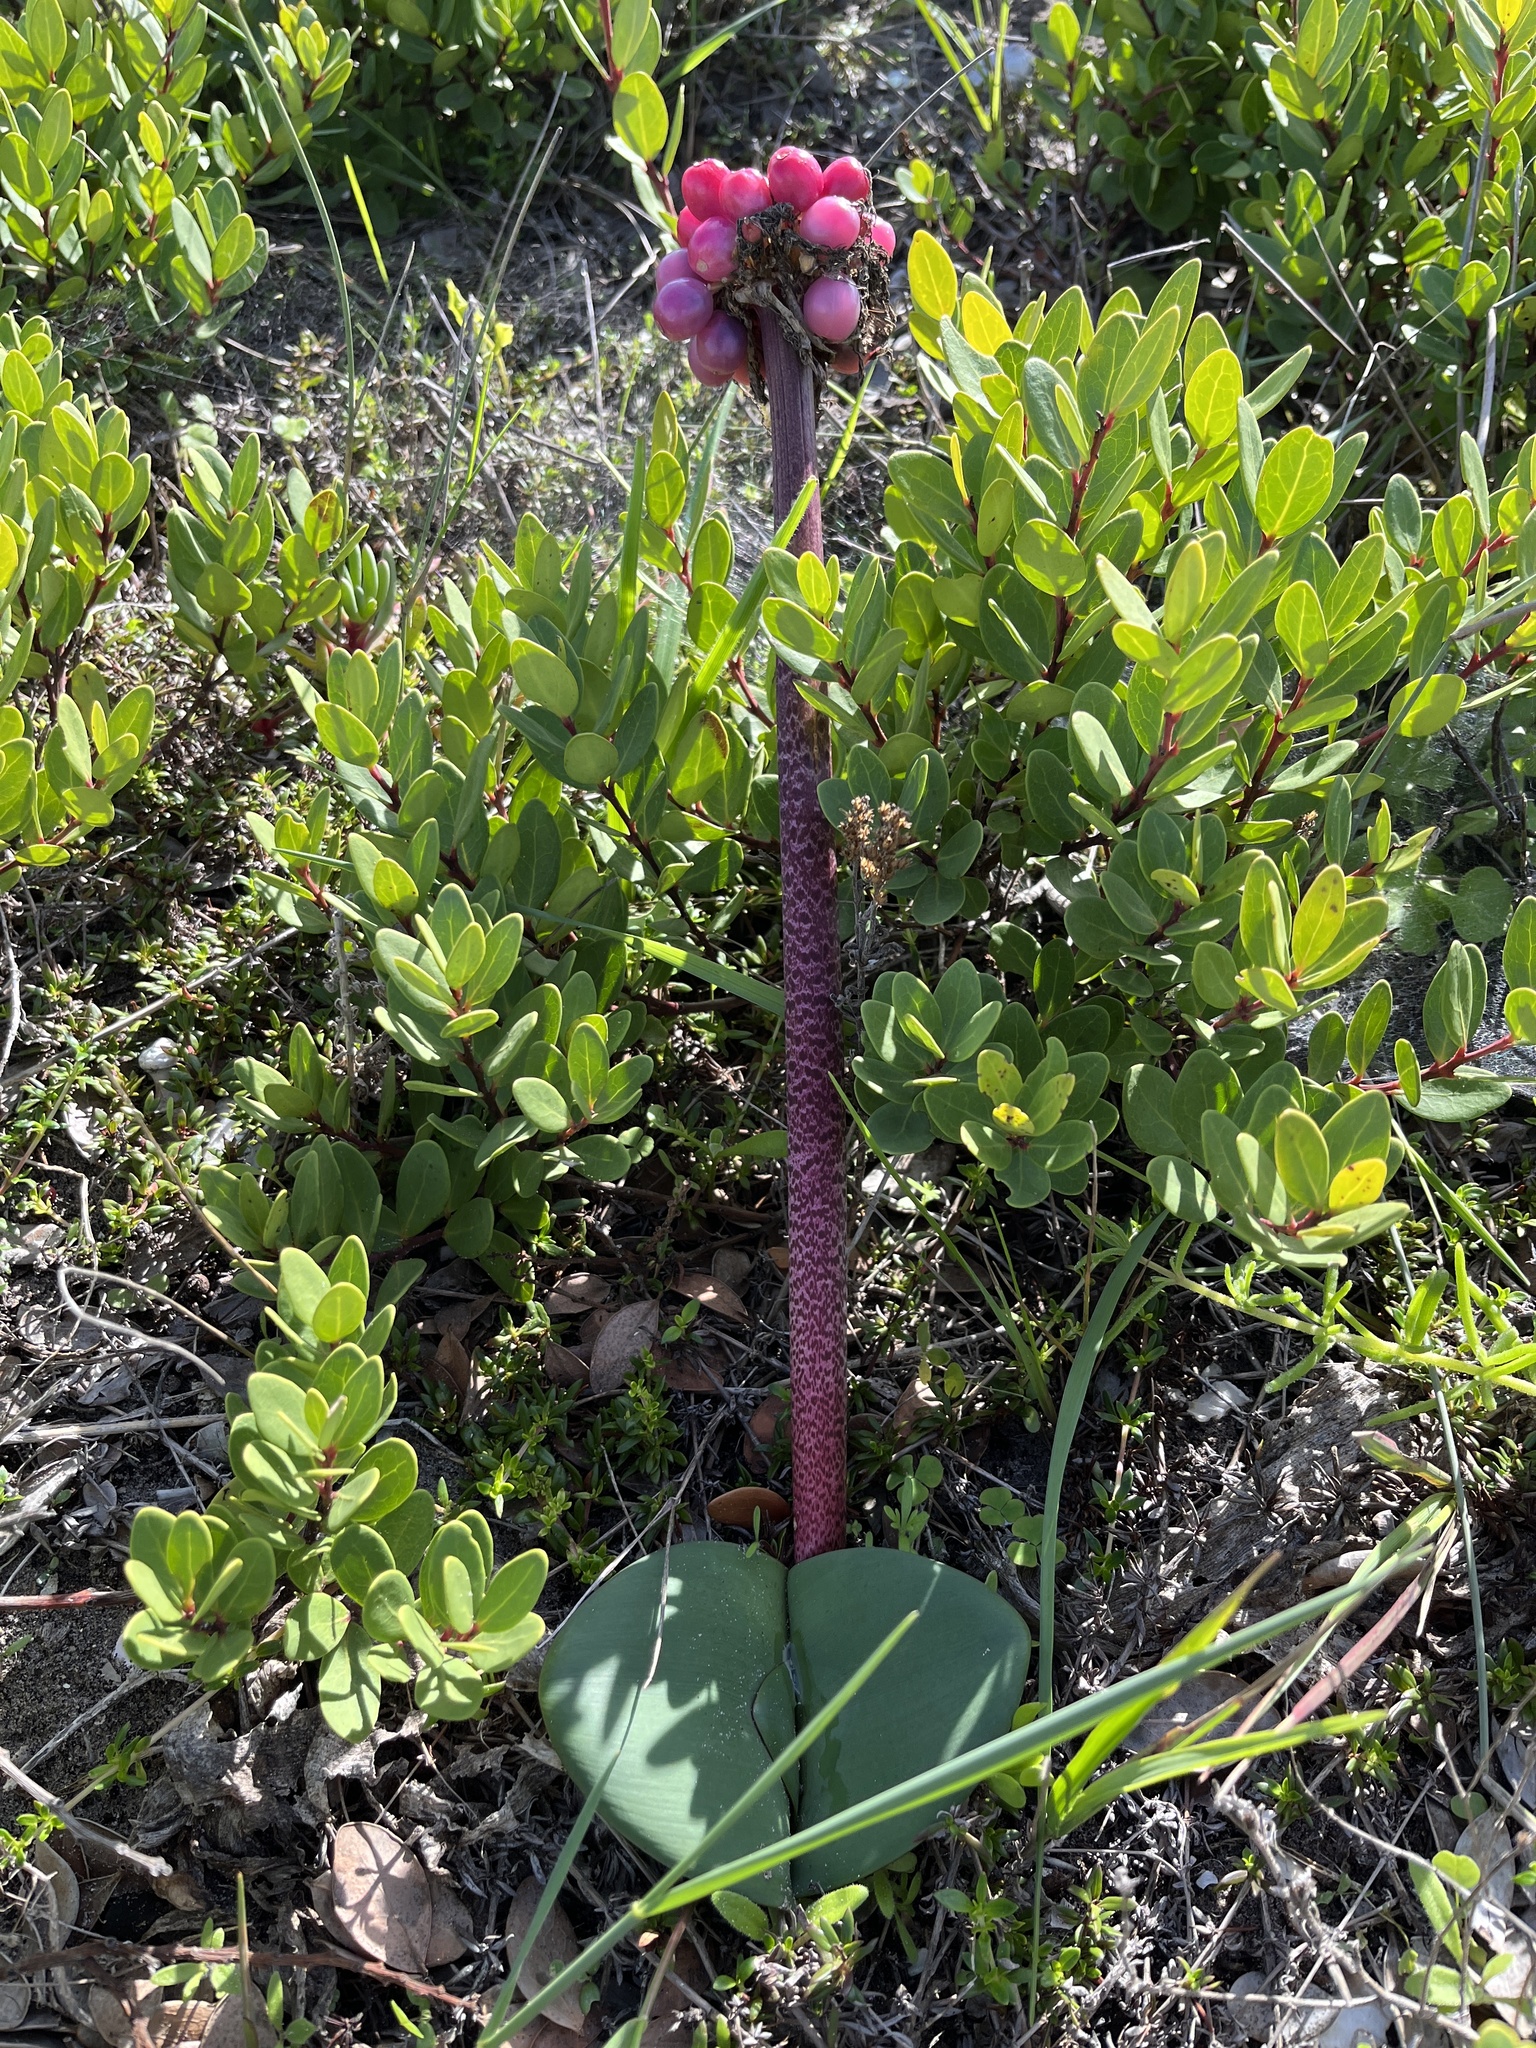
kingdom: Plantae
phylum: Tracheophyta
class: Liliopsida
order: Asparagales
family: Amaryllidaceae
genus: Haemanthus
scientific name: Haemanthus coccineus
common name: Cape-tulip
